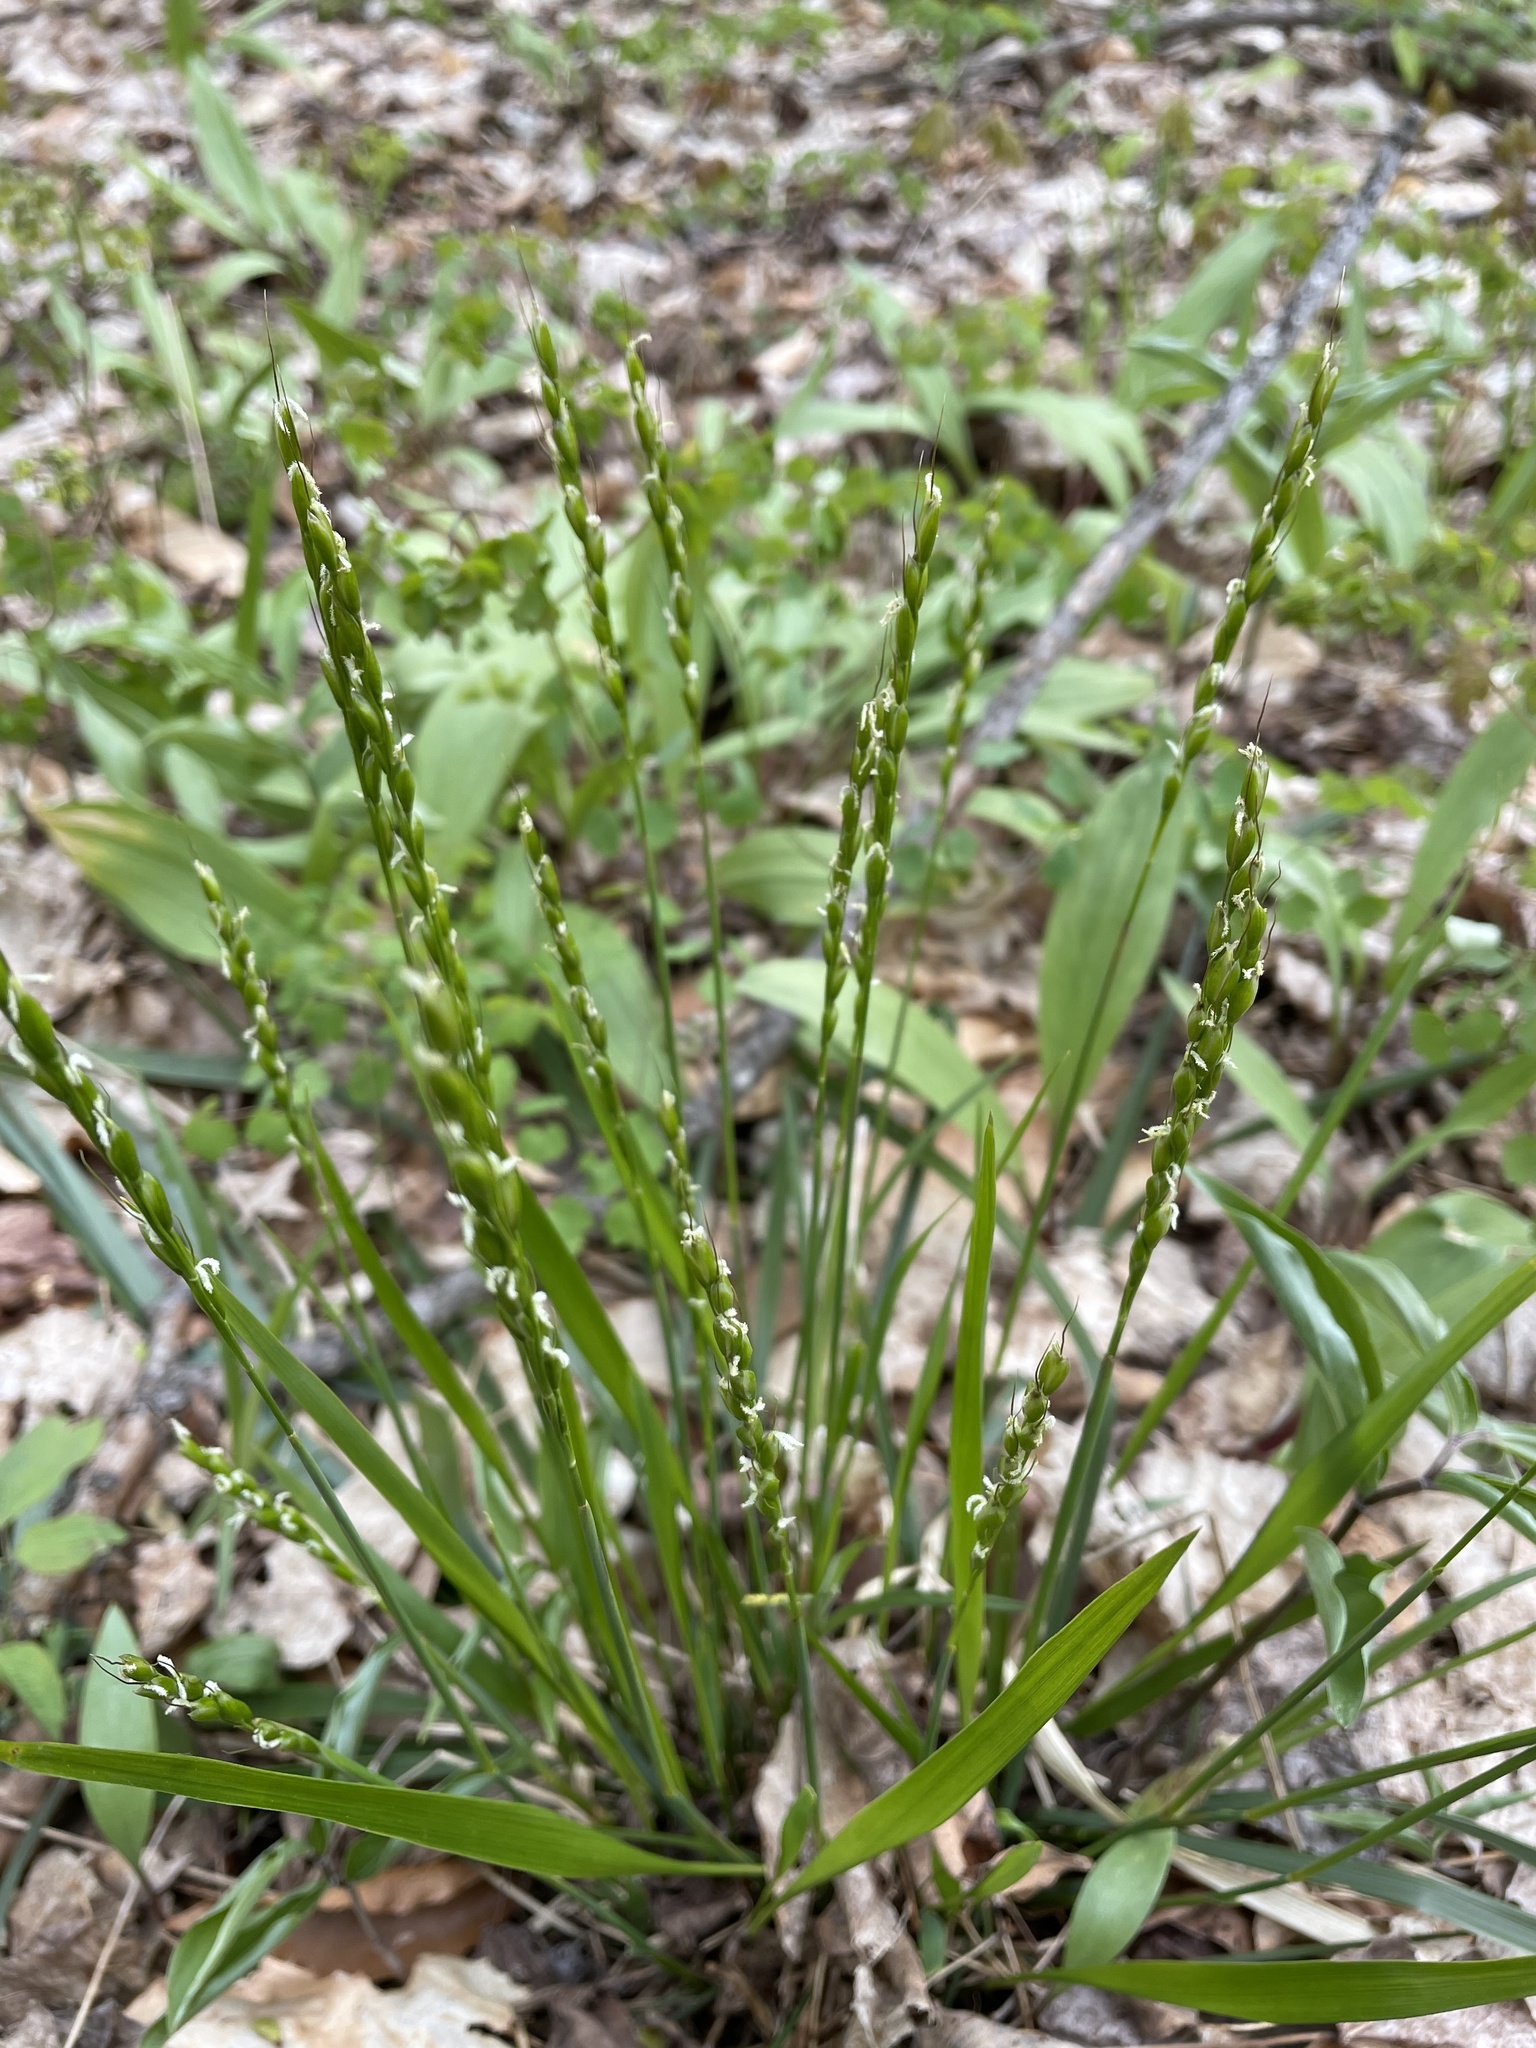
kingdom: Plantae
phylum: Tracheophyta
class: Liliopsida
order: Poales
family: Poaceae
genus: Oryzopsis
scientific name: Oryzopsis asperifolia
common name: Rough-leaved mountain rice
